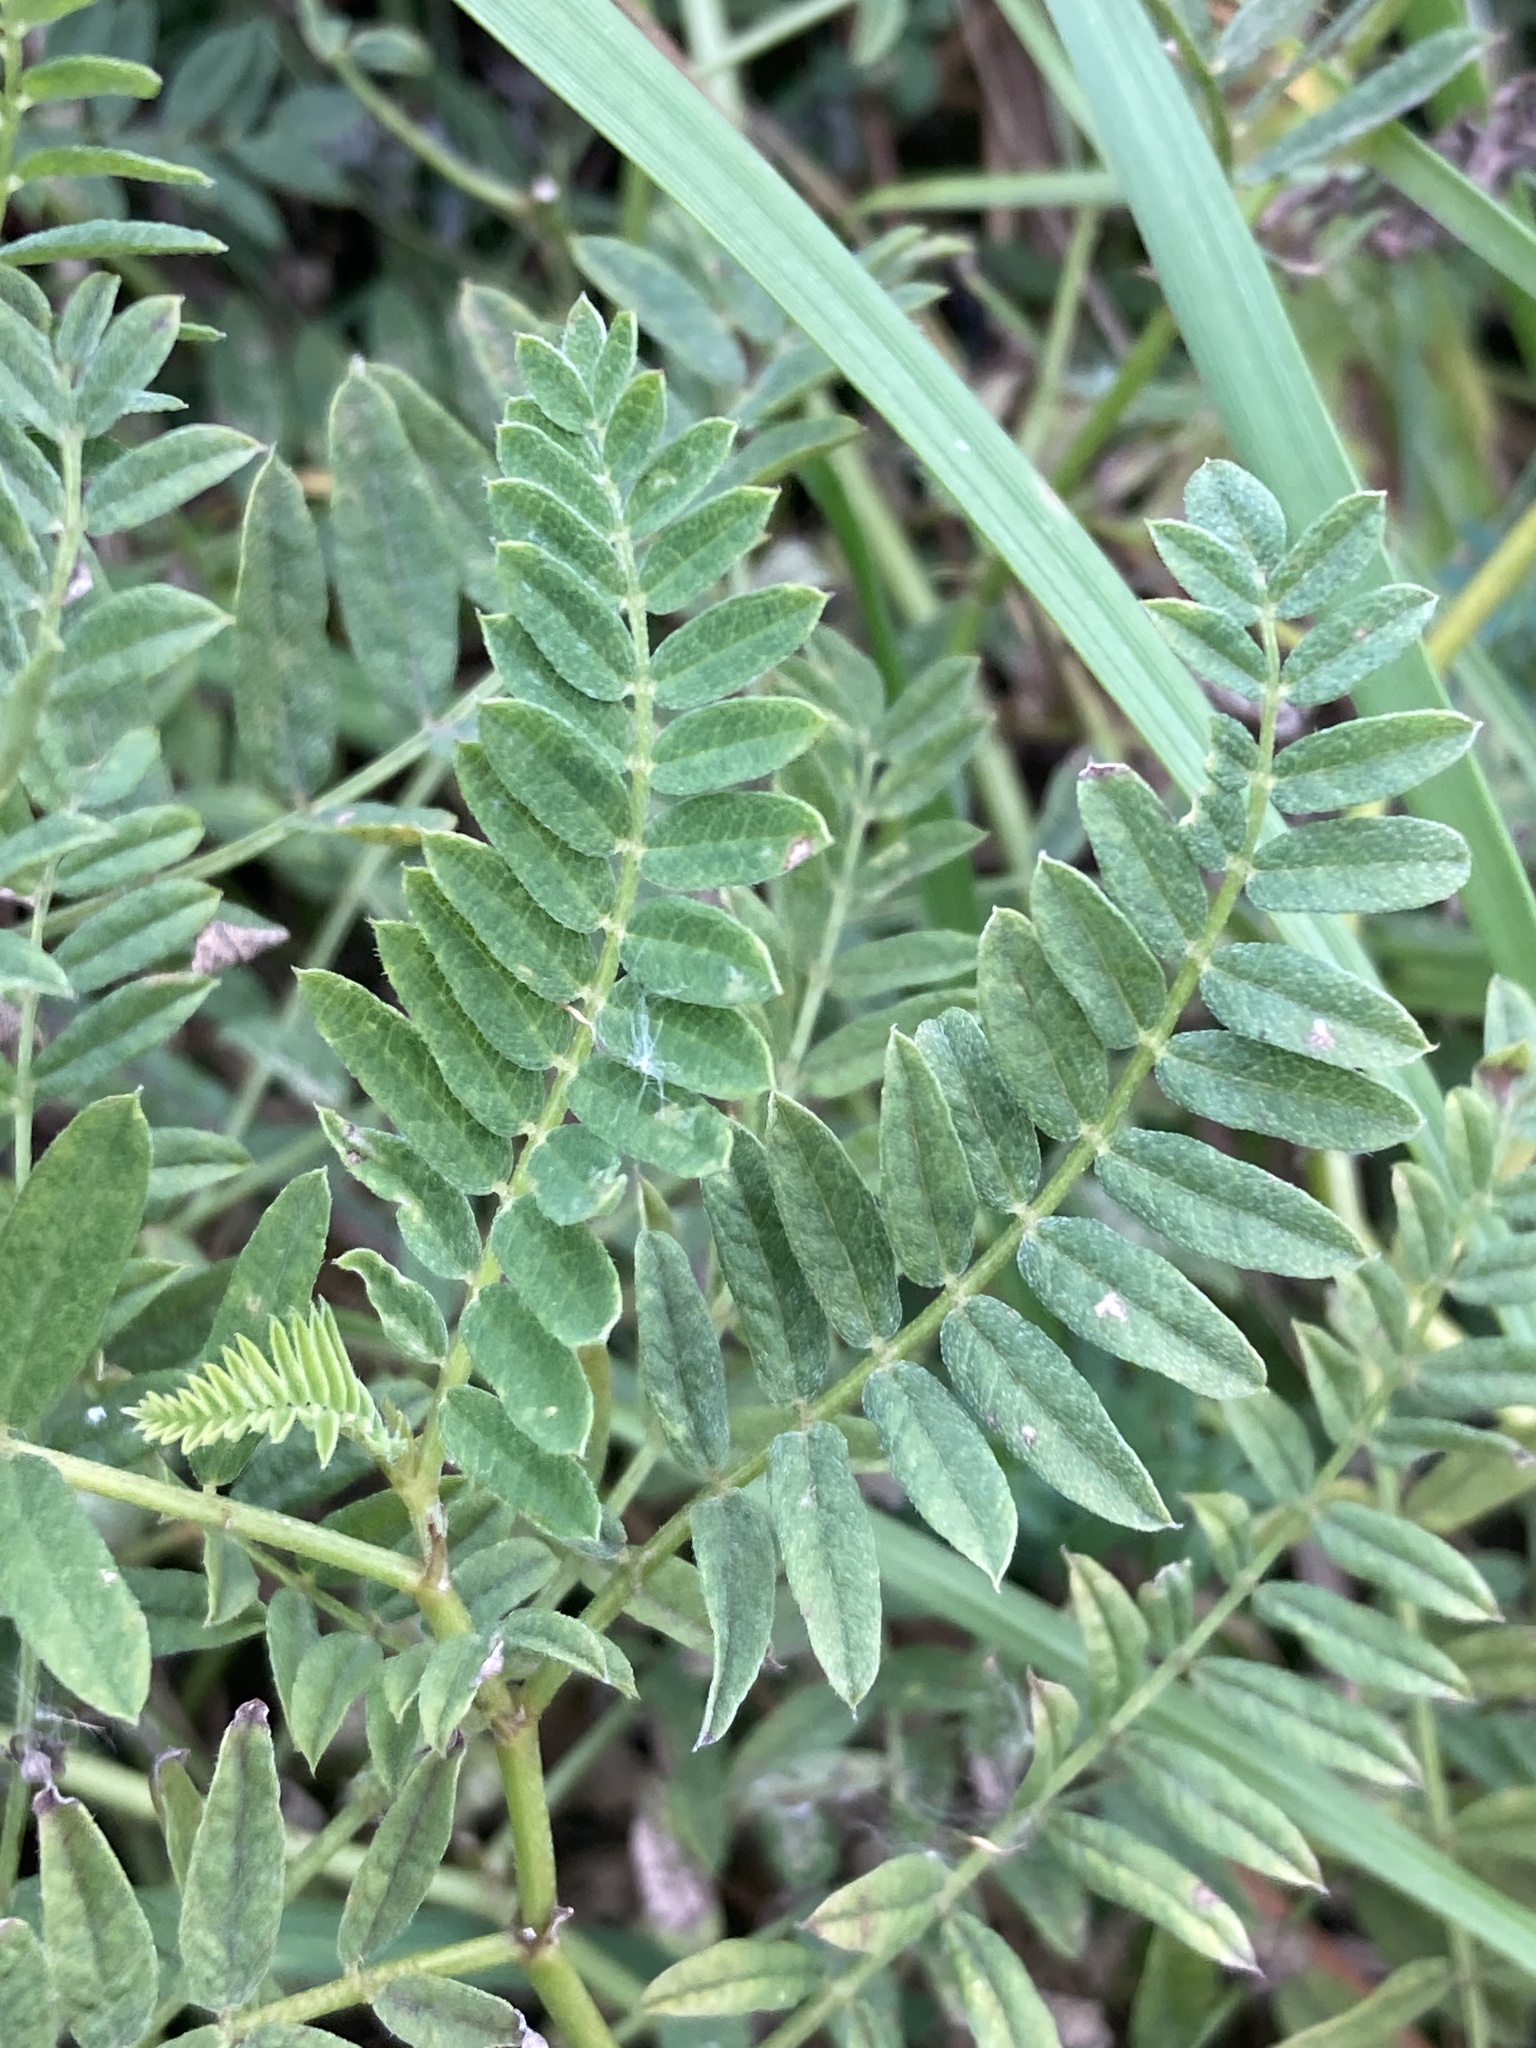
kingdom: Plantae
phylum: Tracheophyta
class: Magnoliopsida
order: Fabales
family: Fabaceae
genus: Astragalus
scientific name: Astragalus cicer
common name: Chick-pea milk-vetch
